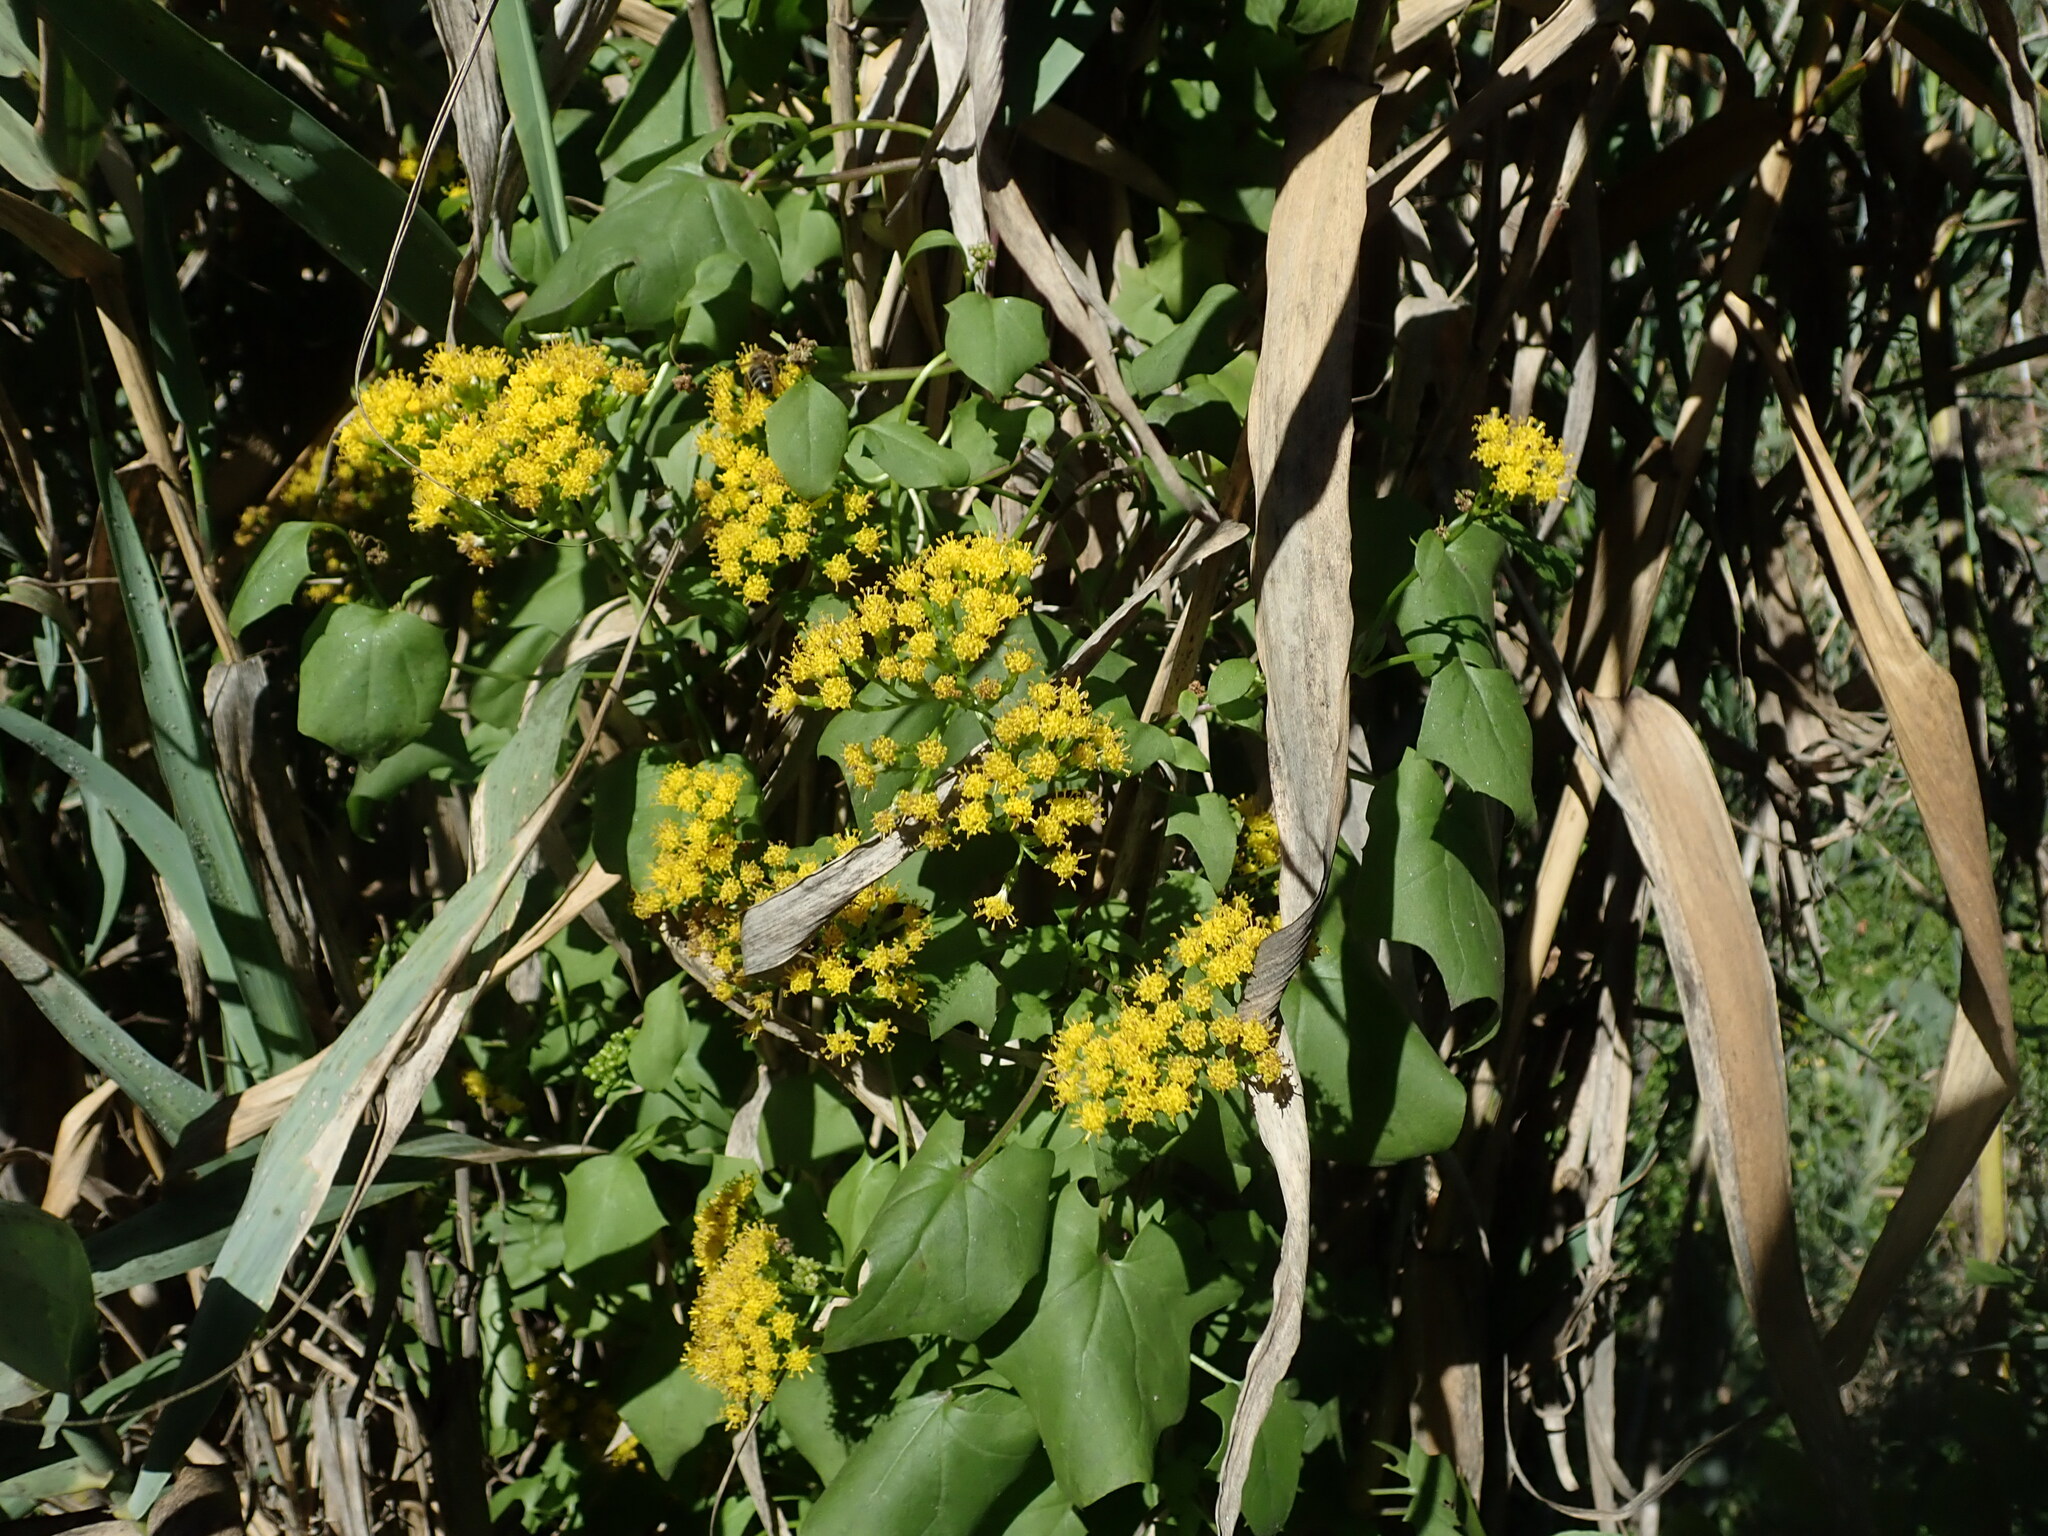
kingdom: Plantae
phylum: Tracheophyta
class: Magnoliopsida
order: Asterales
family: Asteraceae
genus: Delairea
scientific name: Delairea odorata
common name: Cape-ivy
